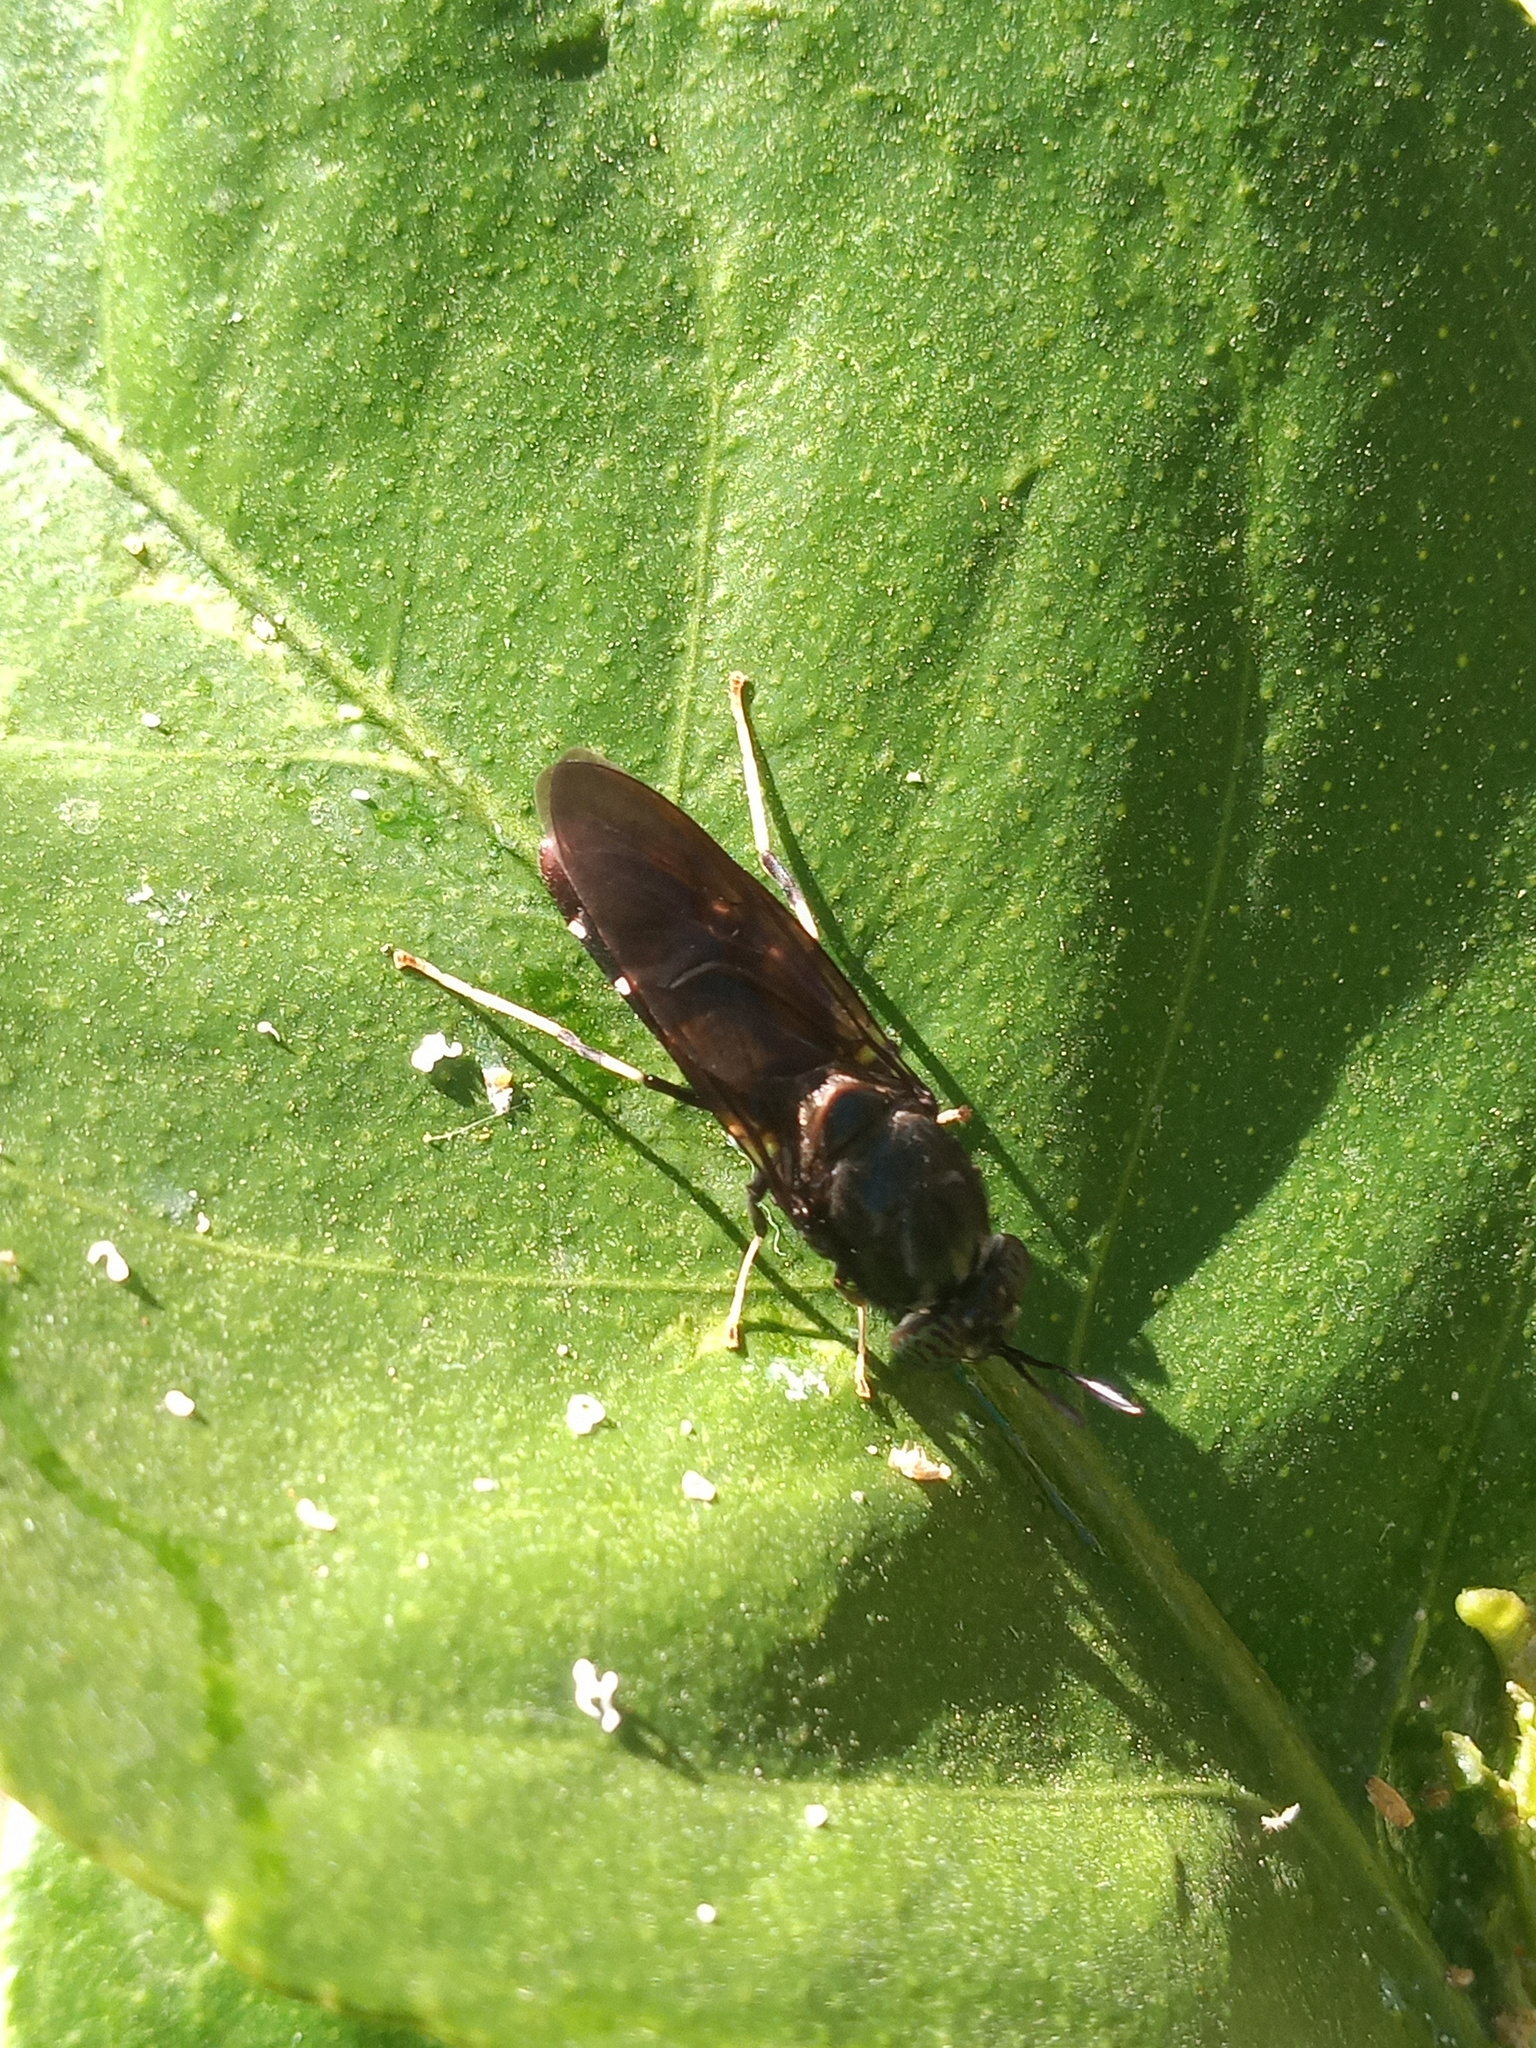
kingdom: Animalia
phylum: Arthropoda
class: Insecta
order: Diptera
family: Stratiomyidae
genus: Hermetia
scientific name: Hermetia illucens
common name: Black soldier fly
